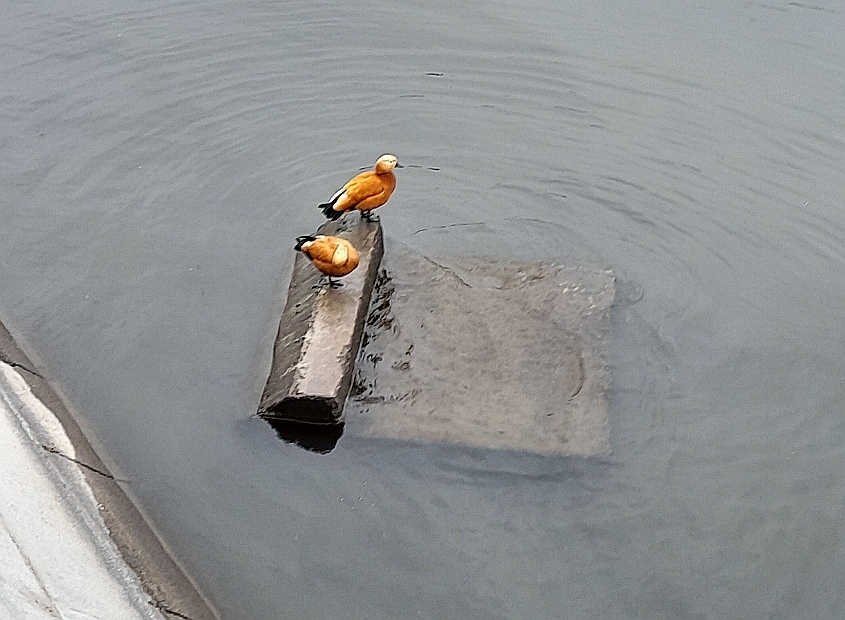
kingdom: Animalia
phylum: Chordata
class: Aves
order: Anseriformes
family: Anatidae
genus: Tadorna
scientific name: Tadorna ferruginea
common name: Ruddy shelduck
